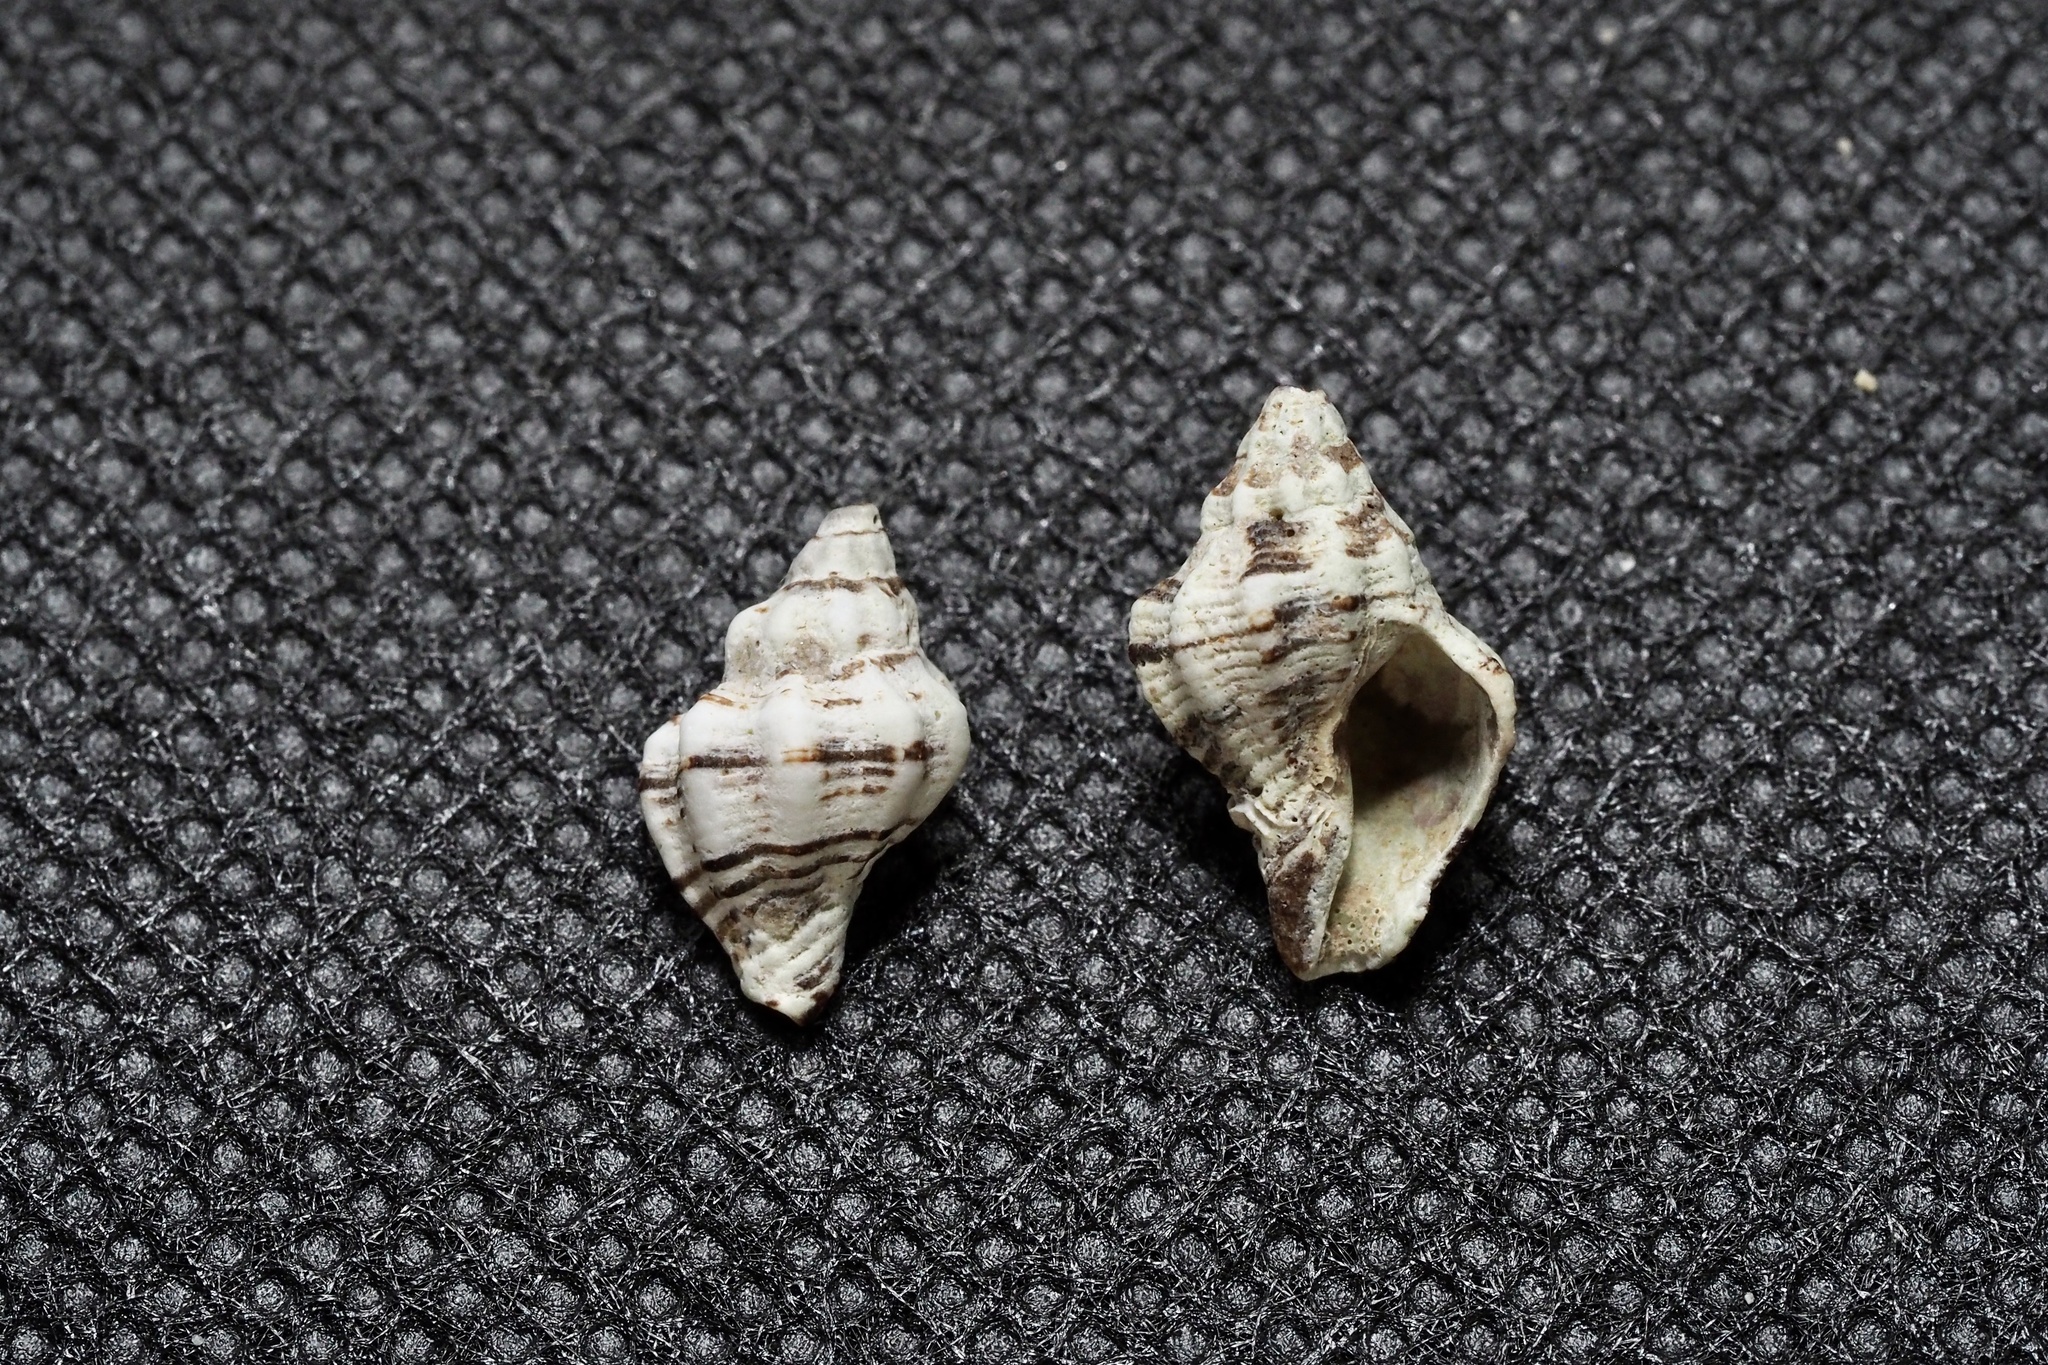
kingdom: Animalia
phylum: Mollusca
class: Gastropoda
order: Neogastropoda
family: Muricidae
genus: Ergalatax
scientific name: Ergalatax contracta
